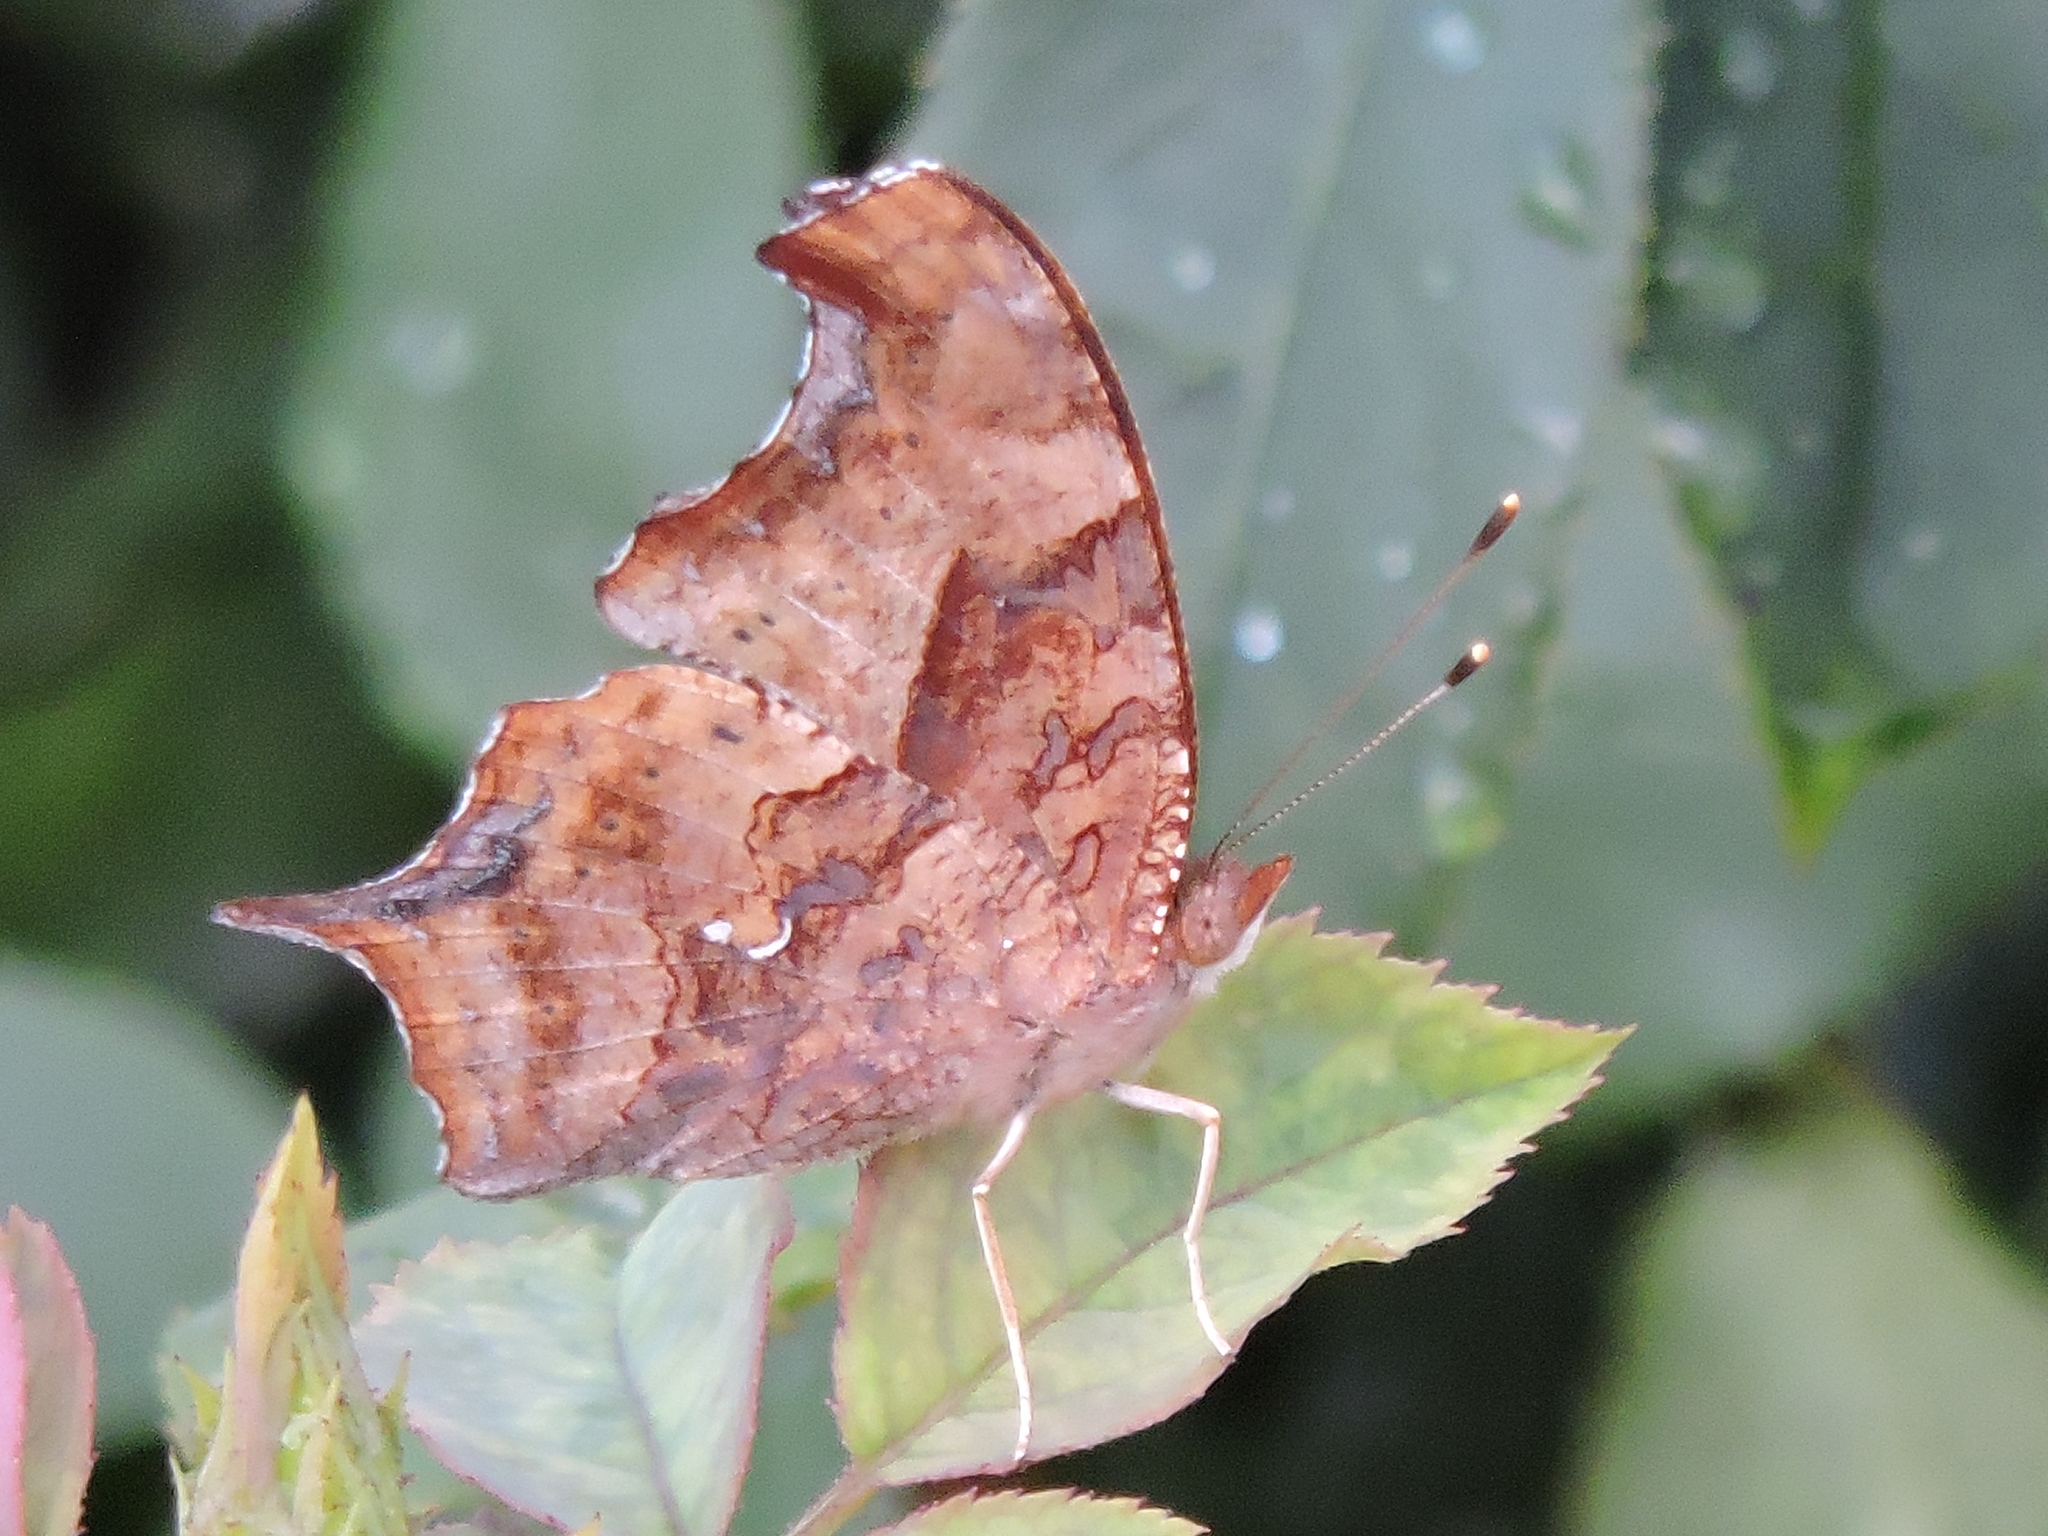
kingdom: Animalia
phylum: Arthropoda
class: Insecta
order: Lepidoptera
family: Nymphalidae
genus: Polygonia
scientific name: Polygonia interrogationis
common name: Question mark
